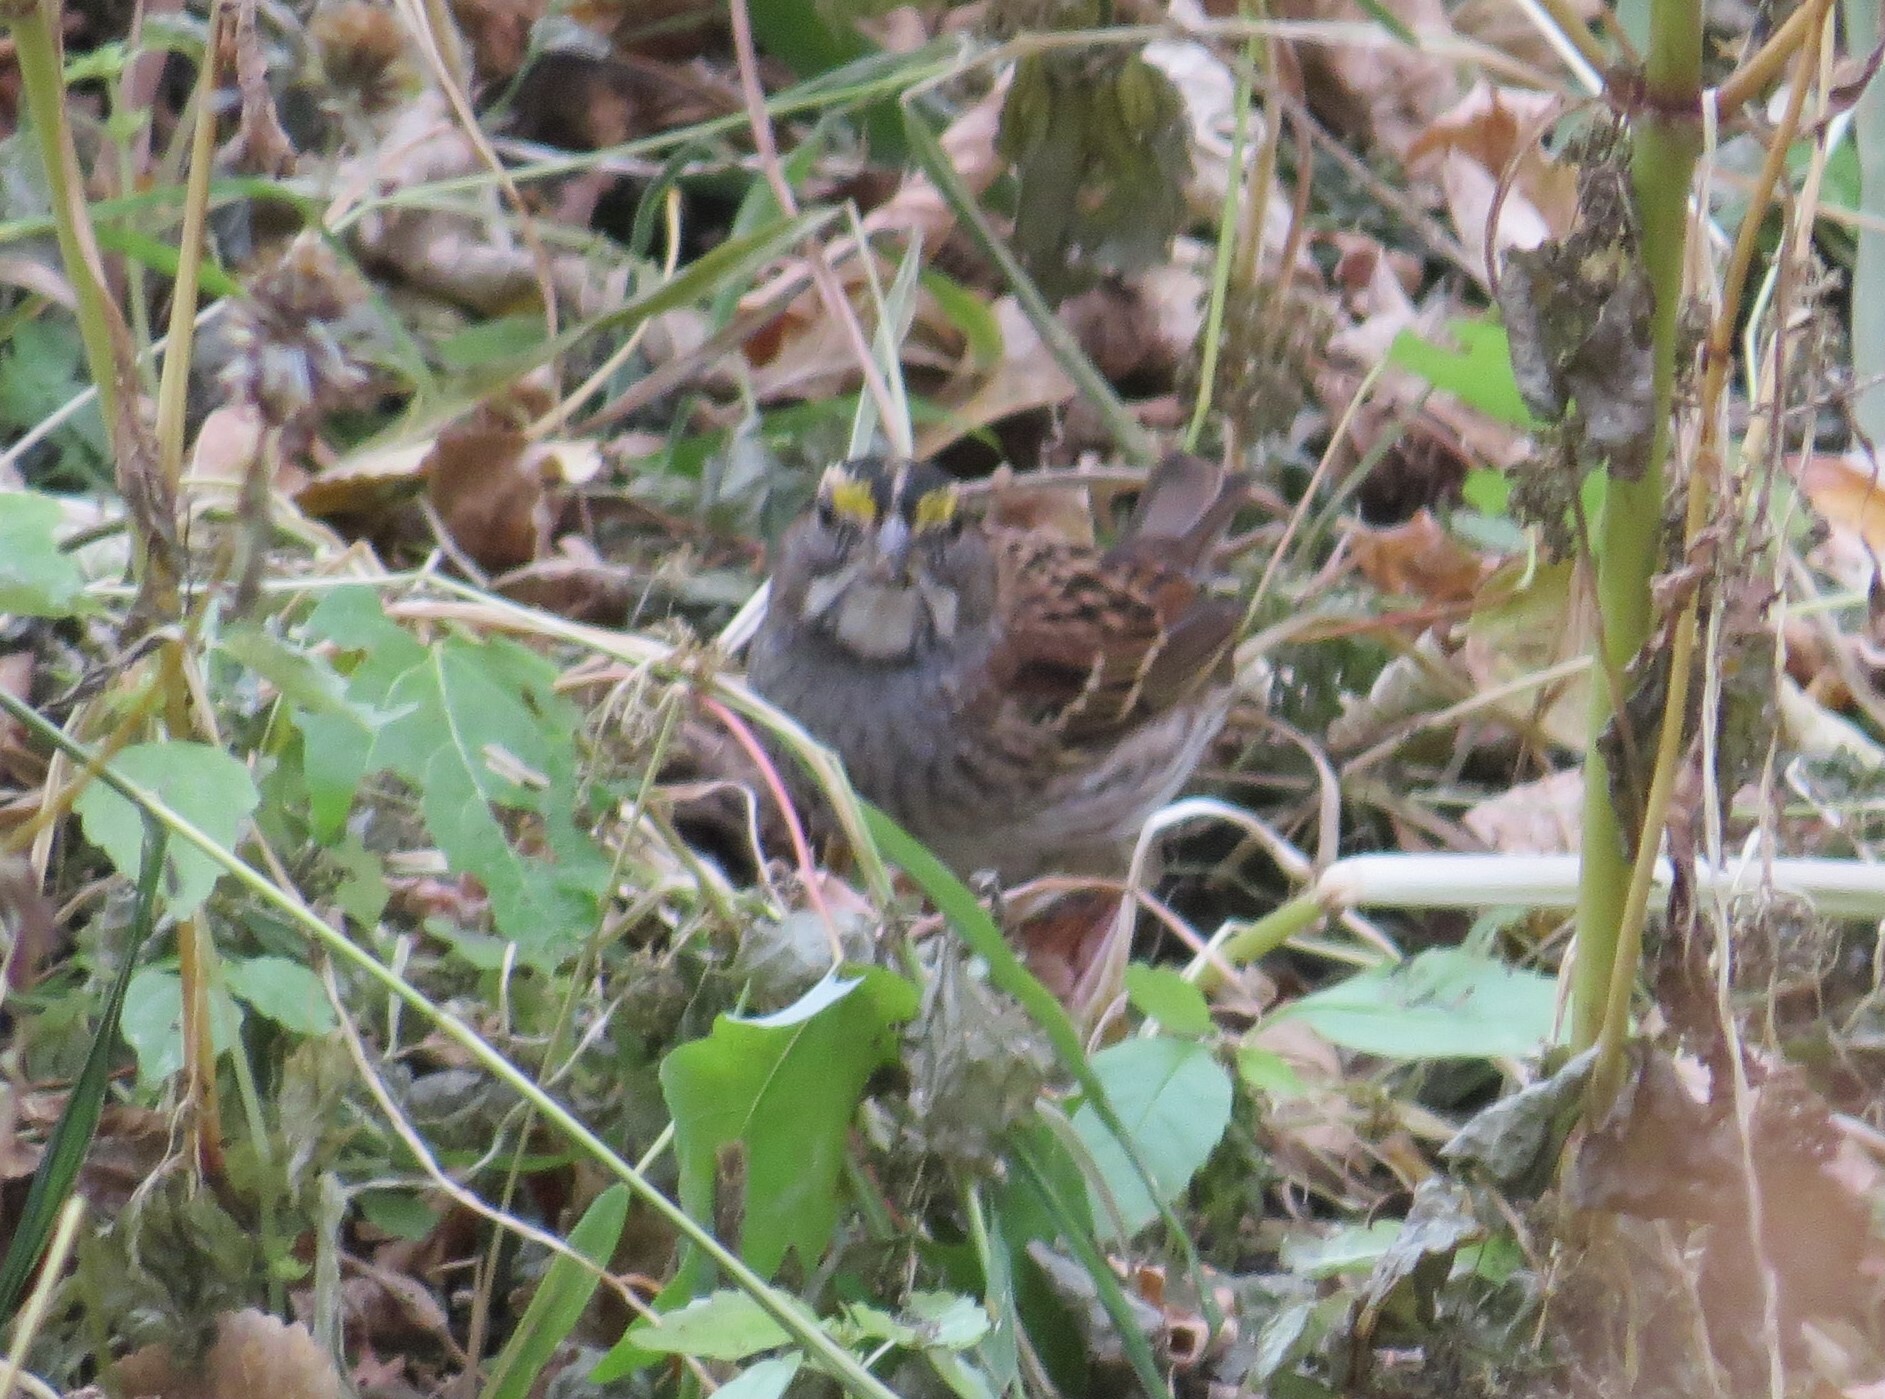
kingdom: Animalia
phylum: Chordata
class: Aves
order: Passeriformes
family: Passerellidae
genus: Zonotrichia
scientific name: Zonotrichia albicollis
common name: White-throated sparrow
